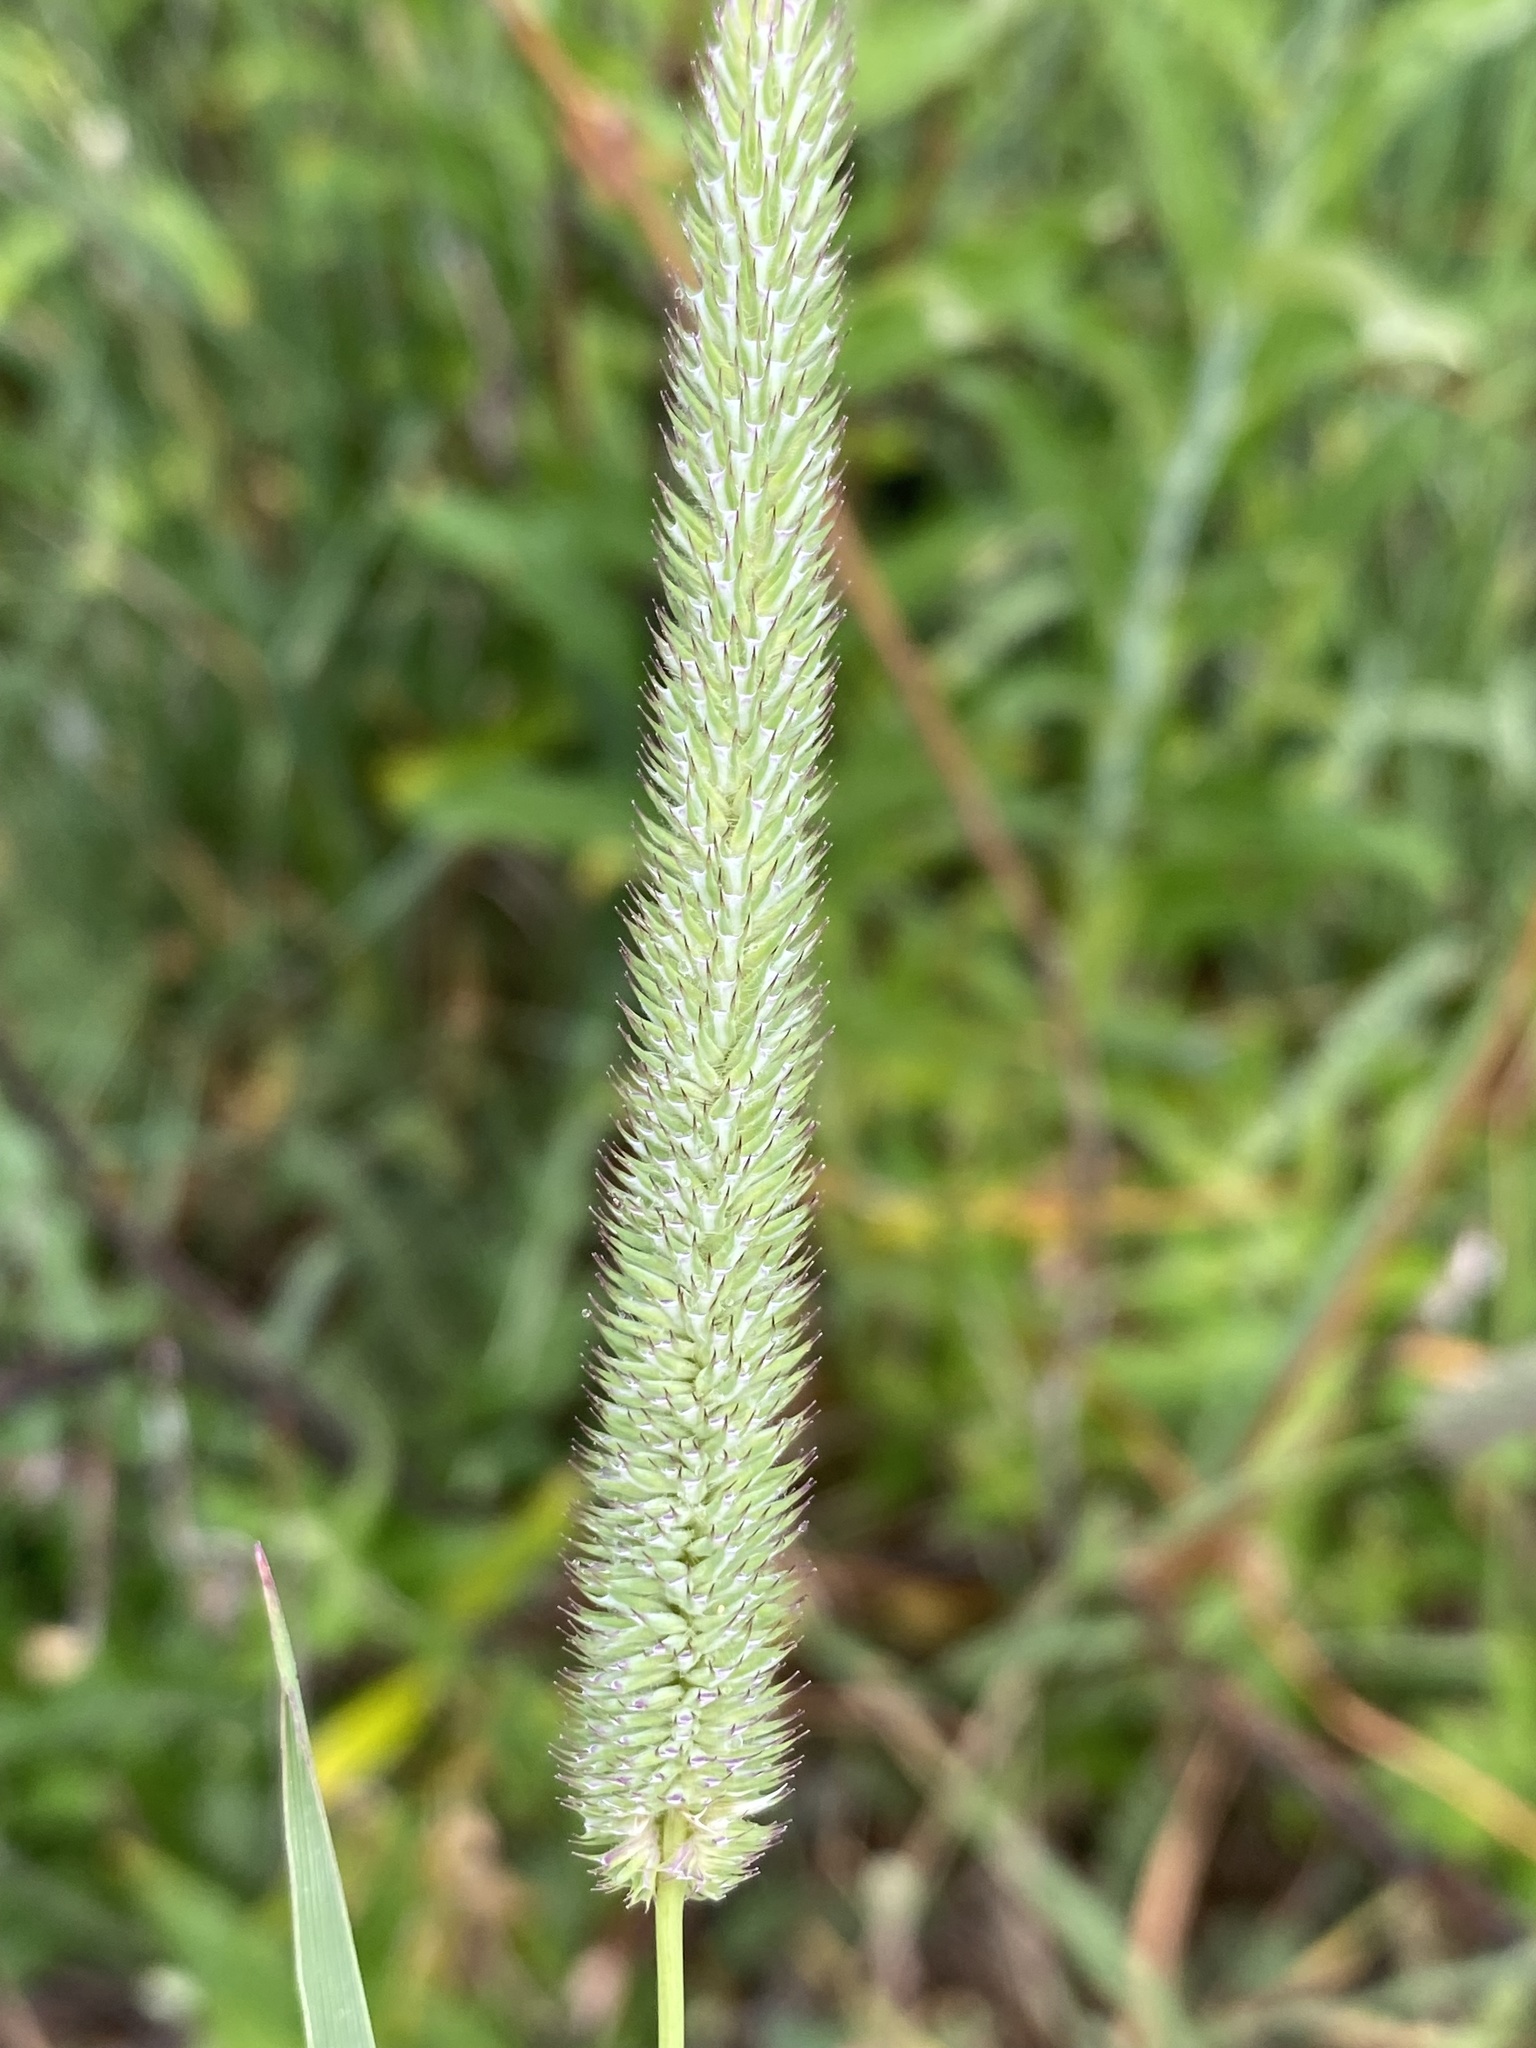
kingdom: Plantae
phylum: Tracheophyta
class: Liliopsida
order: Poales
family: Poaceae
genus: Phleum
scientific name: Phleum pratense
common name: Timothy grass
